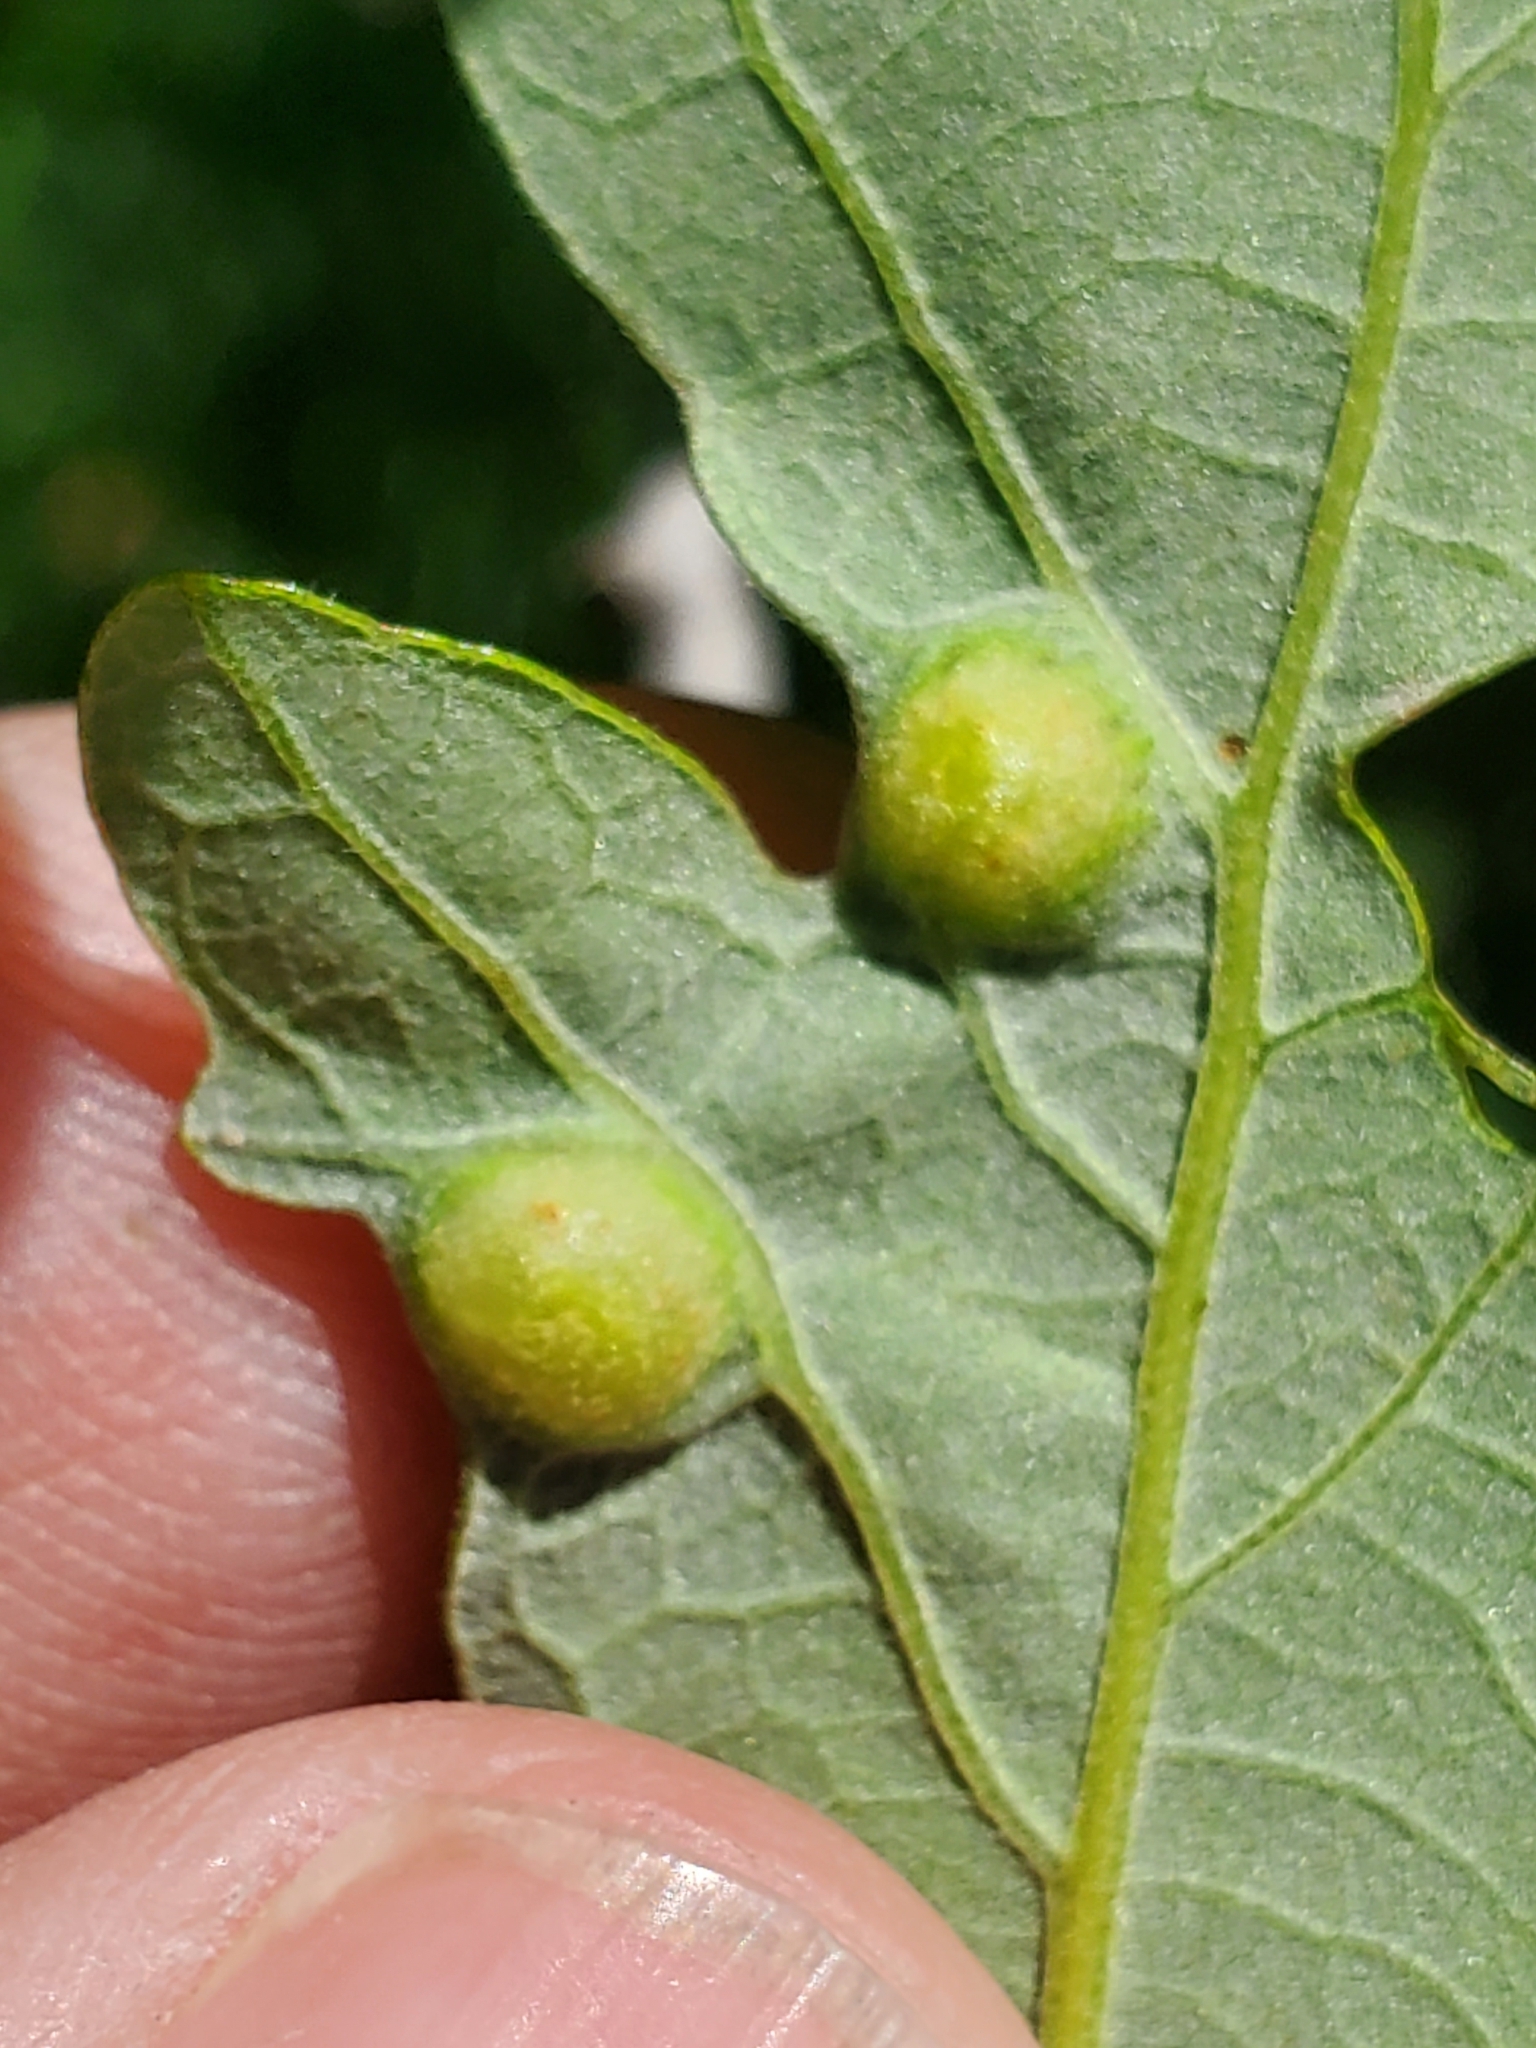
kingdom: Animalia
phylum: Arthropoda
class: Insecta
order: Hymenoptera
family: Cynipidae
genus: Callirhytis
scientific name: Callirhytis
